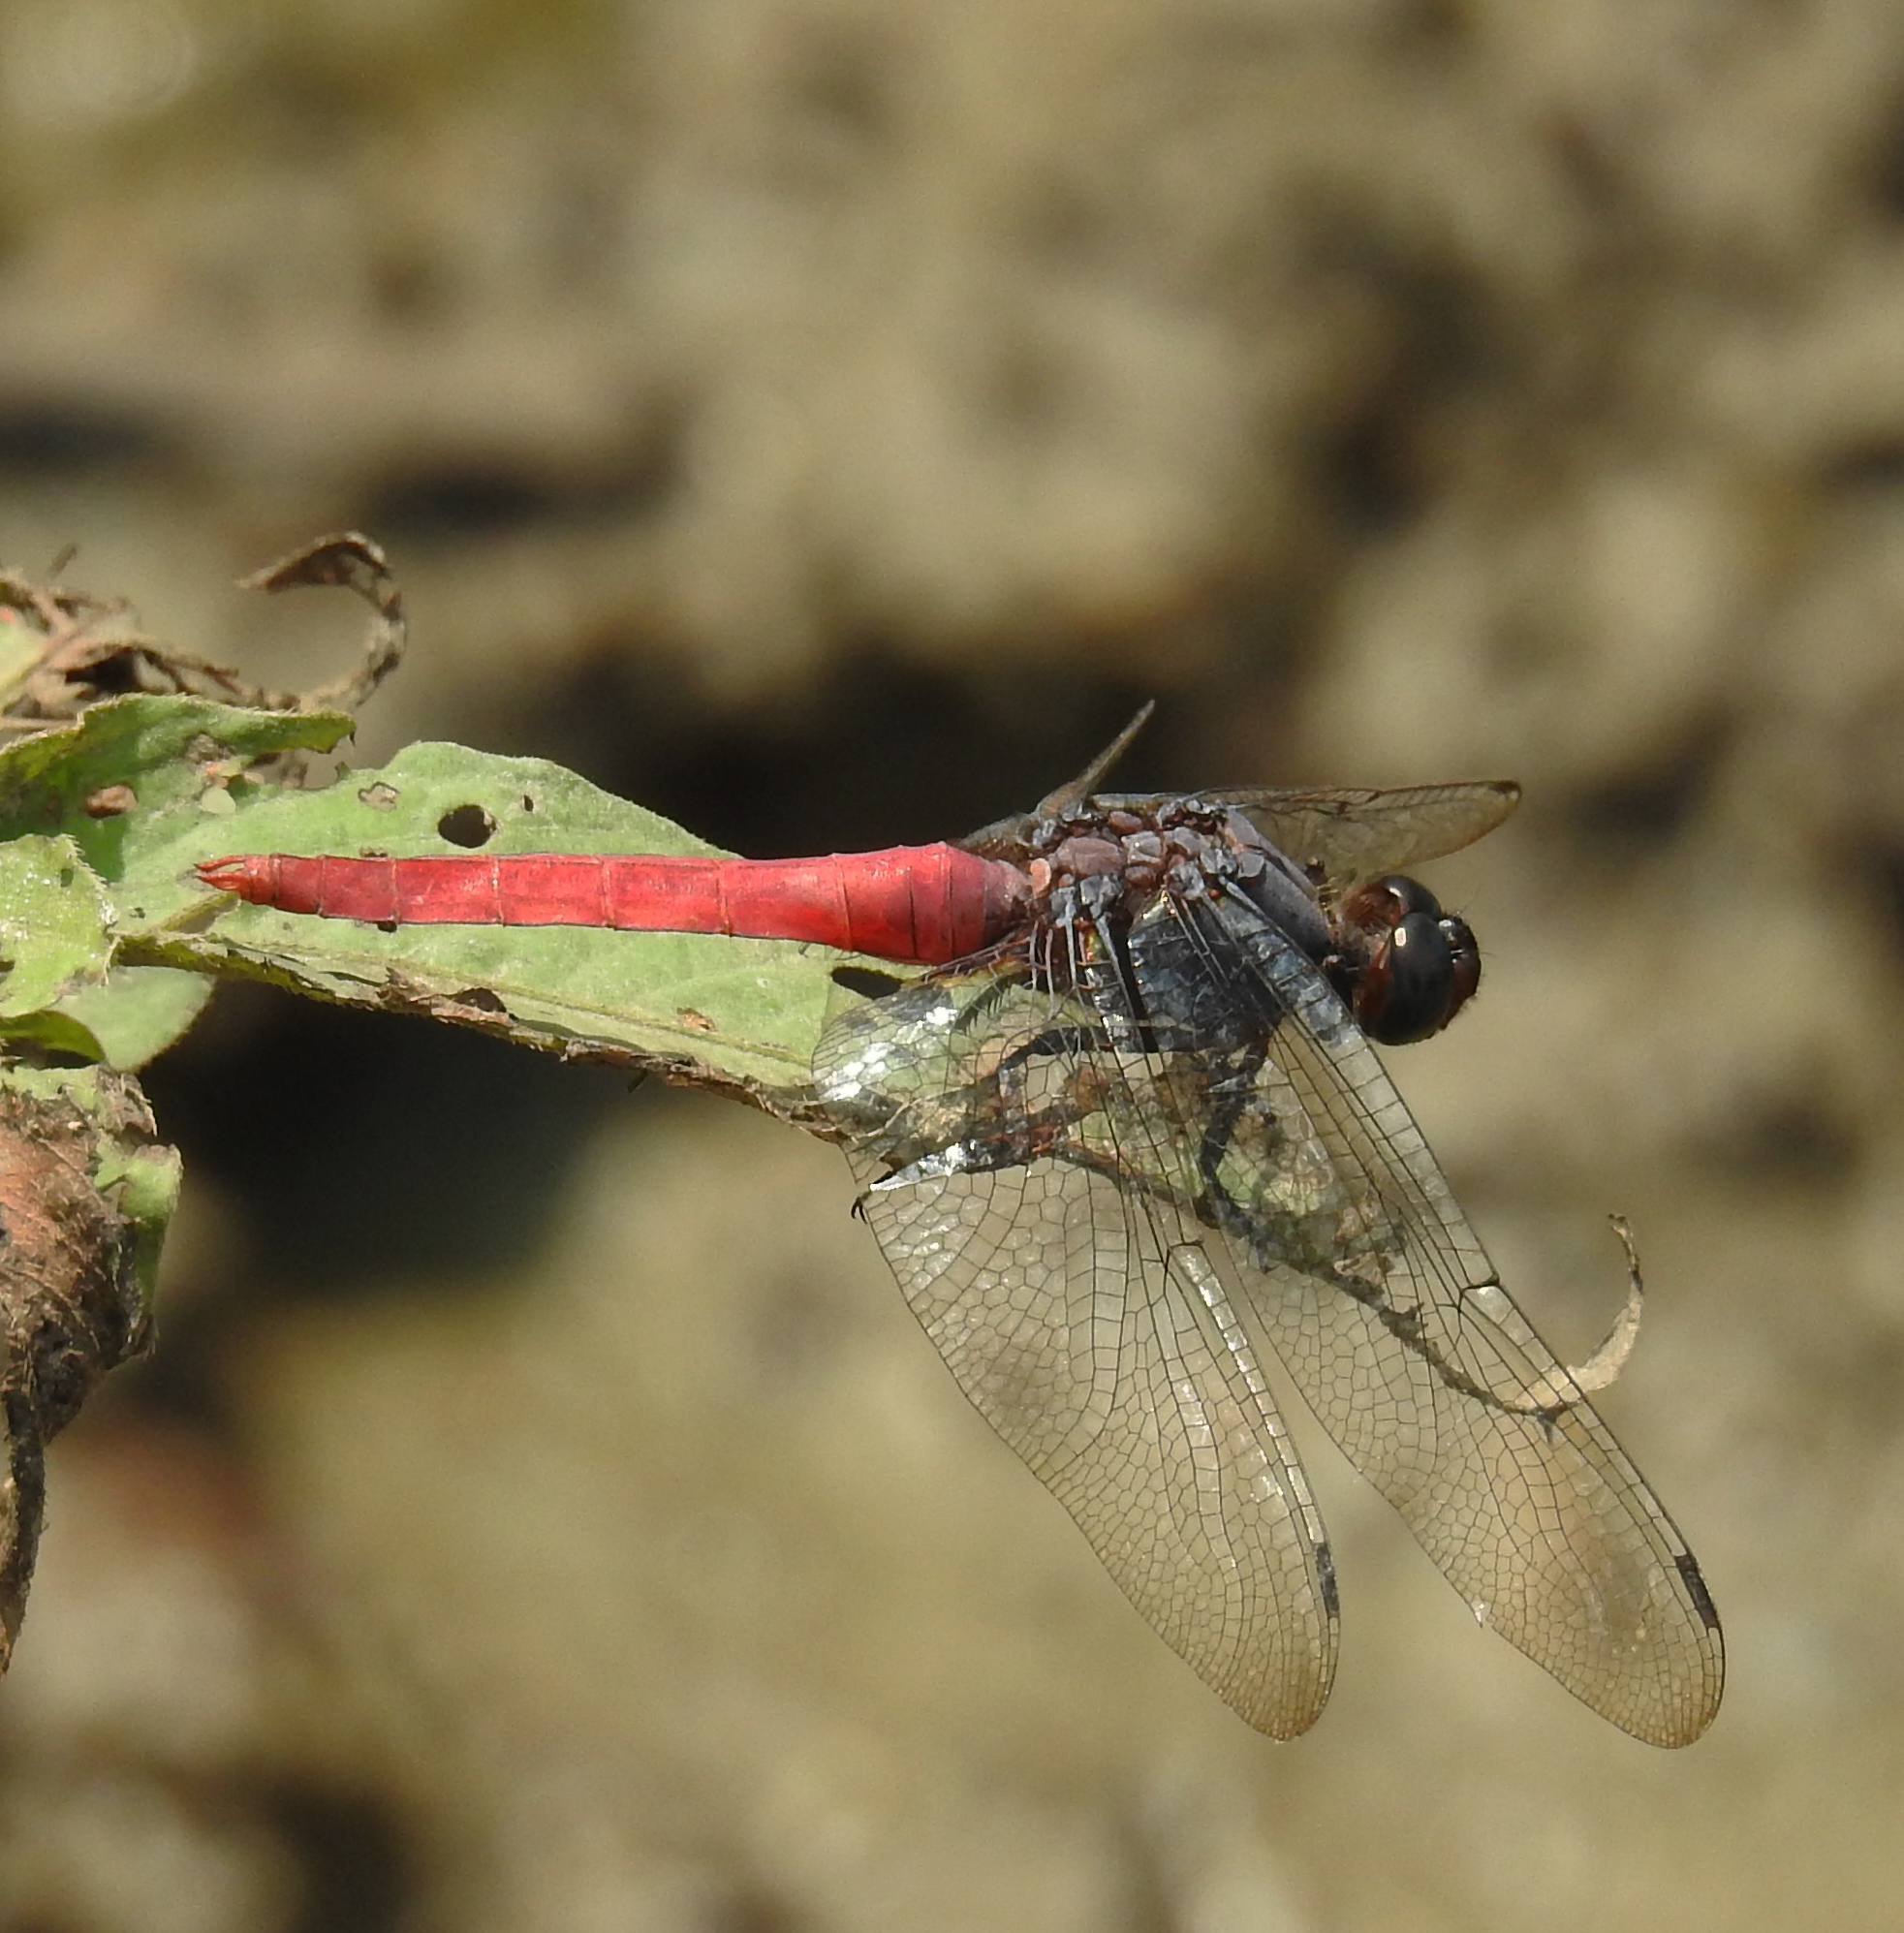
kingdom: Animalia
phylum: Arthropoda
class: Insecta
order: Odonata
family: Libellulidae
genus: Orthetrum
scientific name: Orthetrum pruinosum
